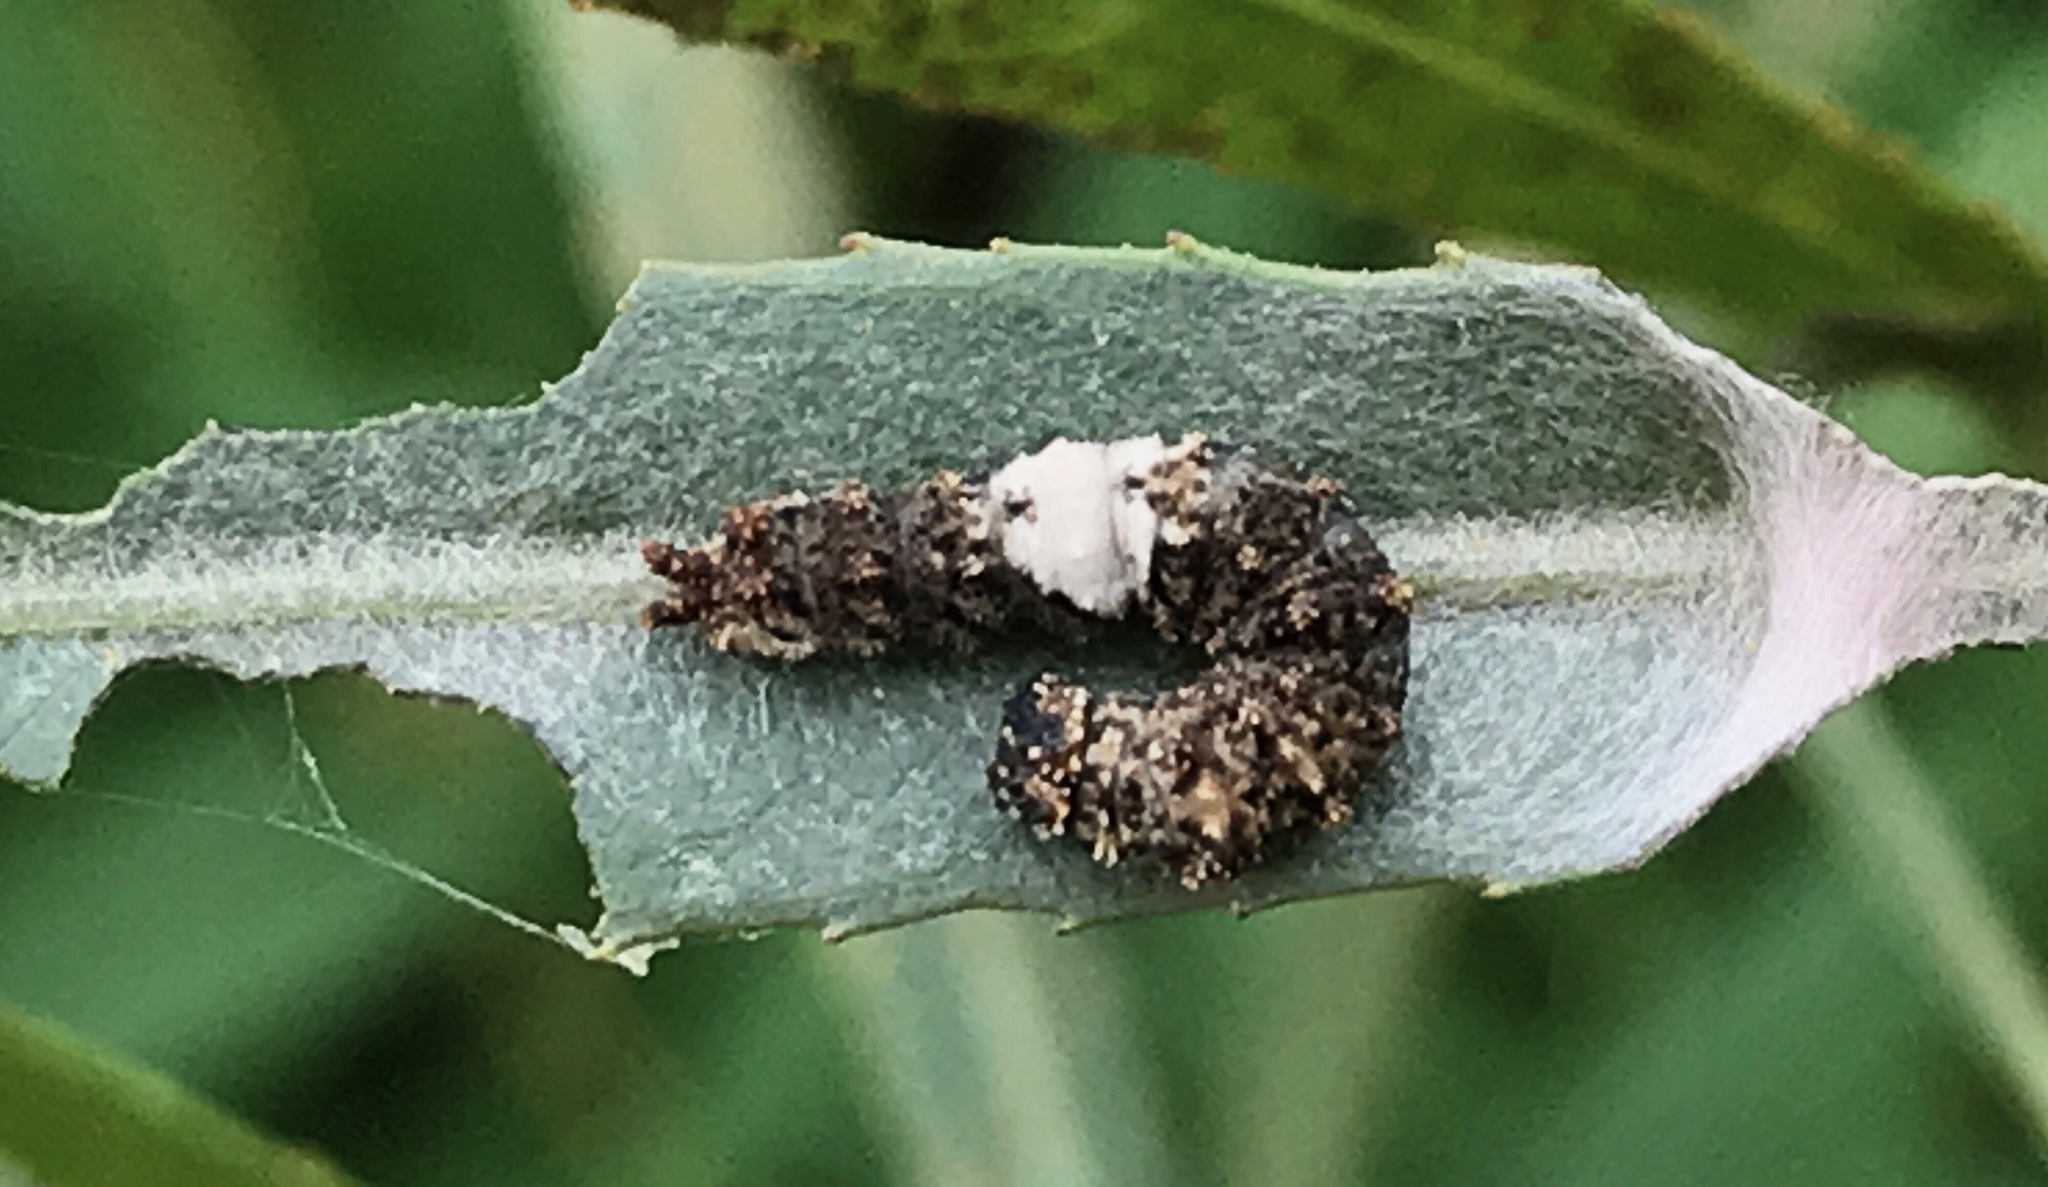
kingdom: Animalia
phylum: Arthropoda
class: Insecta
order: Lepidoptera
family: Nymphalidae
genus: Limenitis
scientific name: Limenitis archippus
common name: Viceroy
